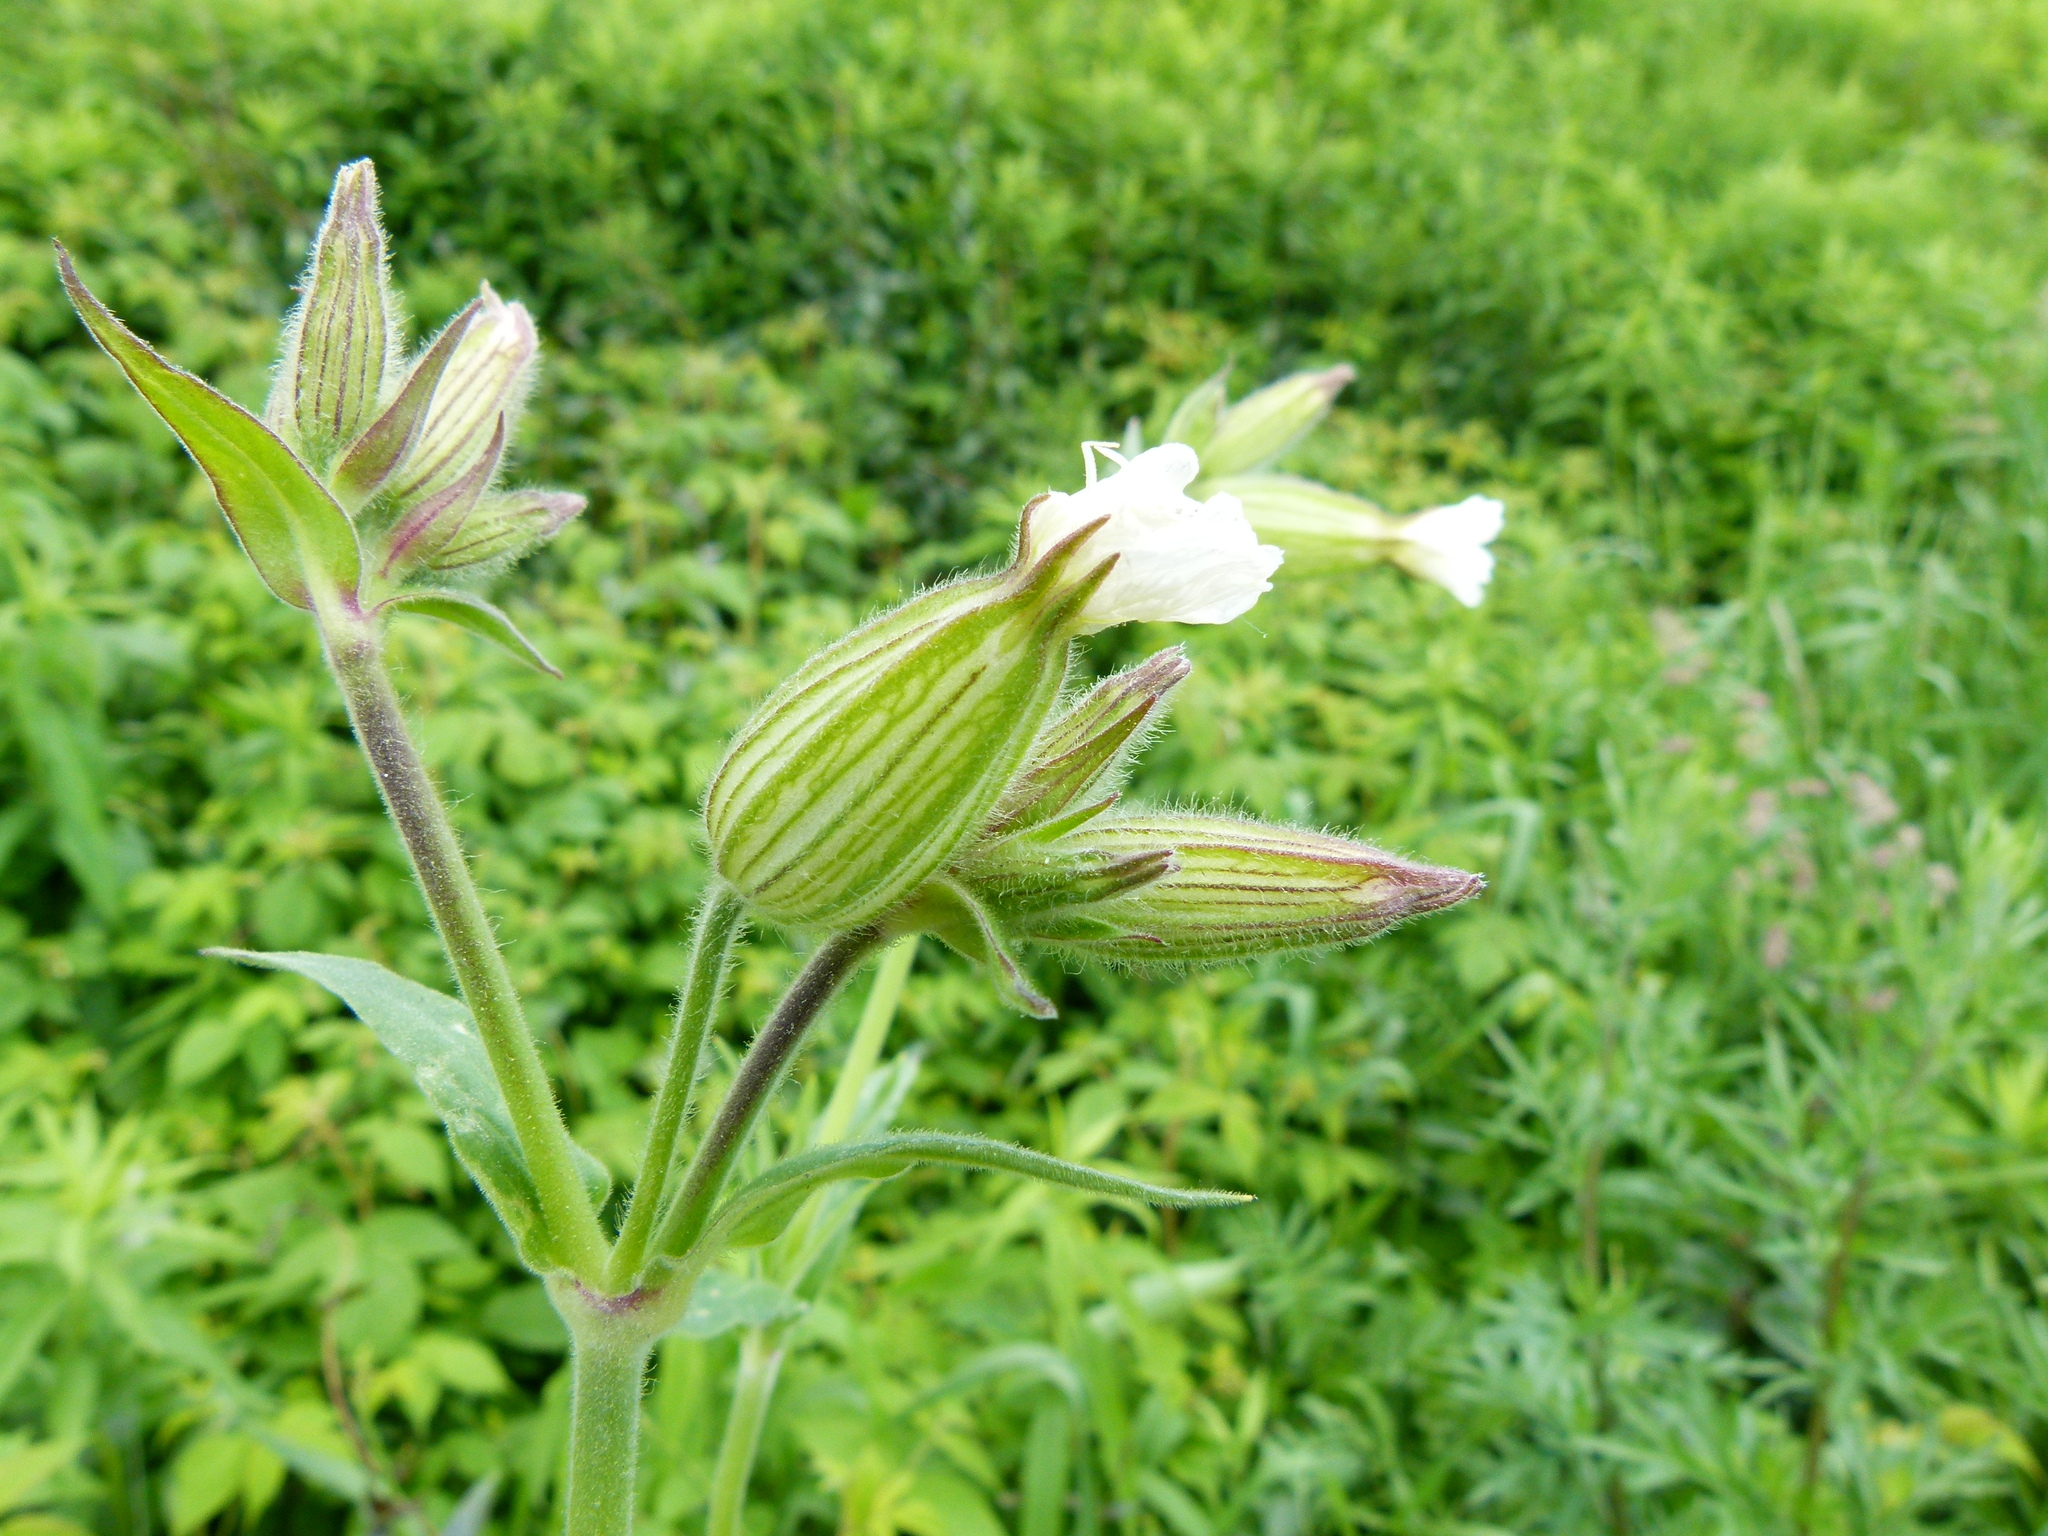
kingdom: Plantae
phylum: Tracheophyta
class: Magnoliopsida
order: Caryophyllales
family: Caryophyllaceae
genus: Silene
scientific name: Silene latifolia
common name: White campion
